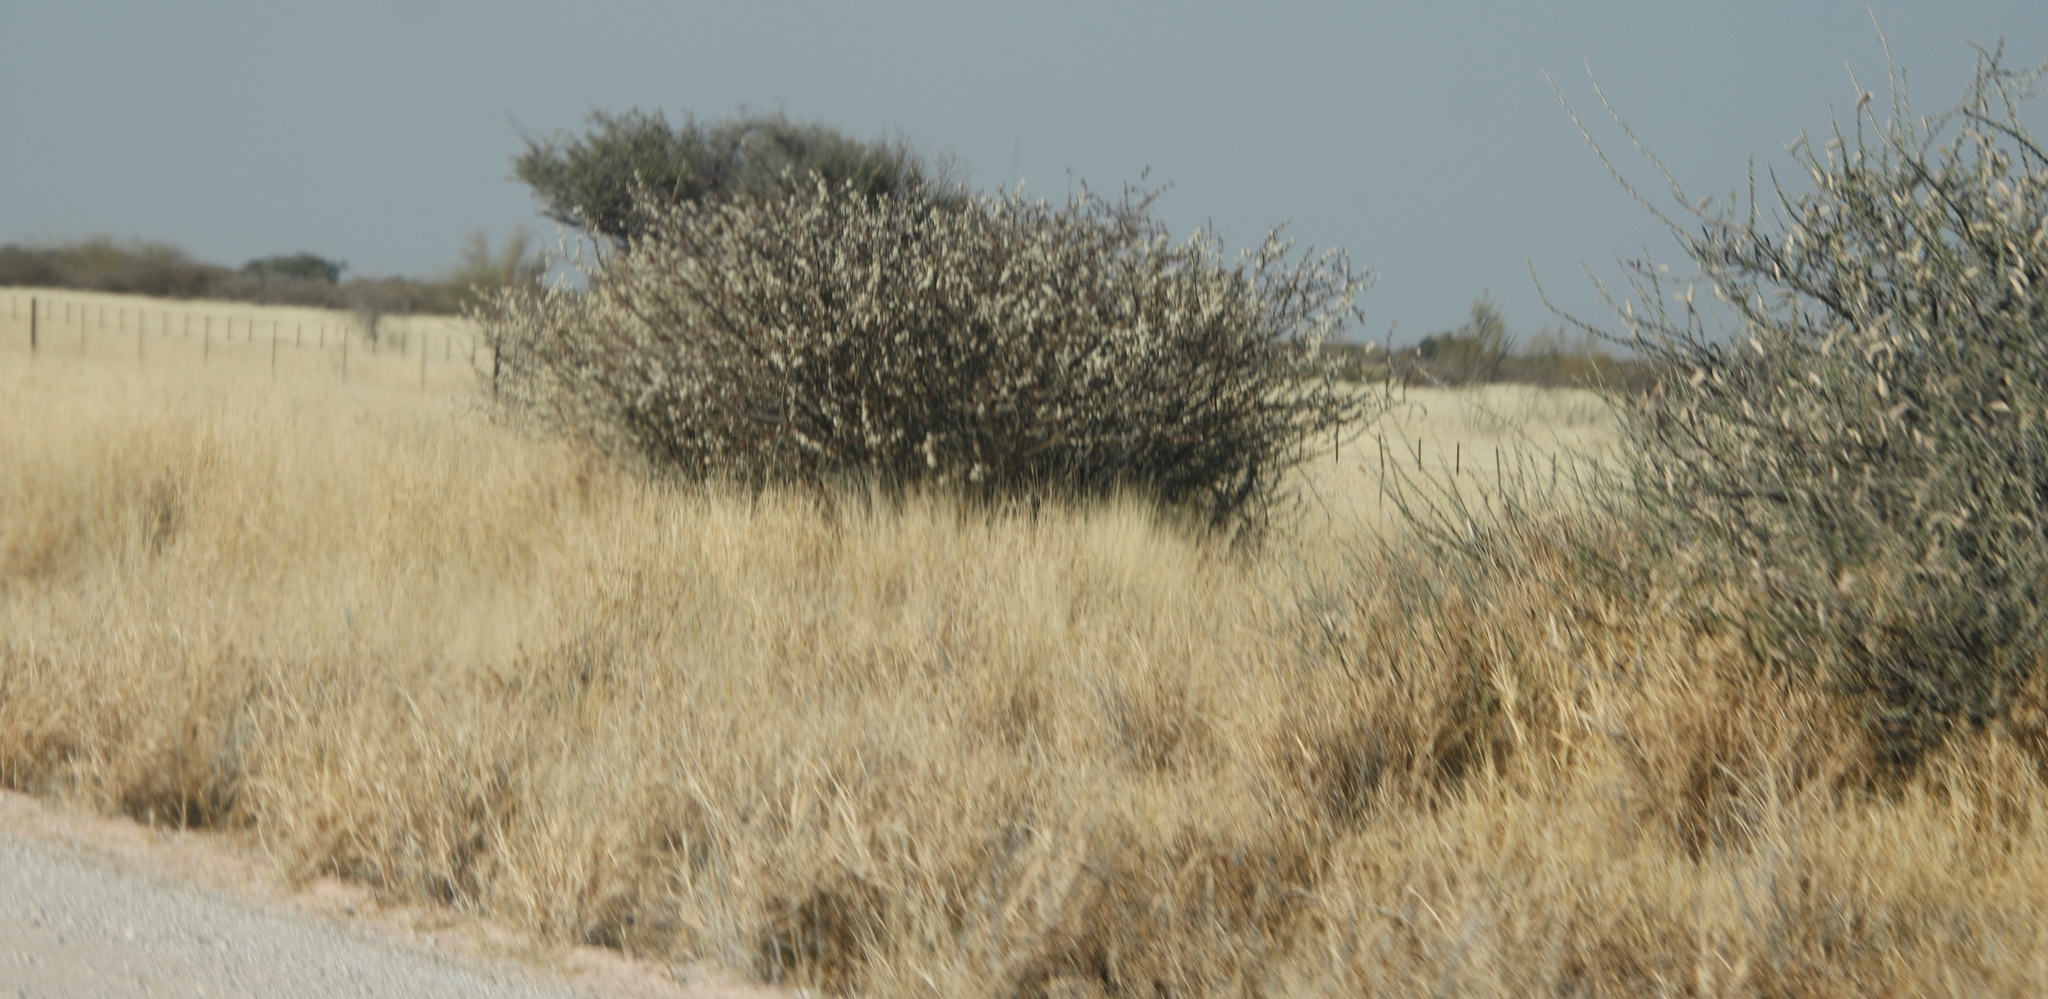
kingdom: Plantae
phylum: Tracheophyta
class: Magnoliopsida
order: Fabales
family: Fabaceae
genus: Vachellia
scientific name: Vachellia hebeclada
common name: Candle thorn
